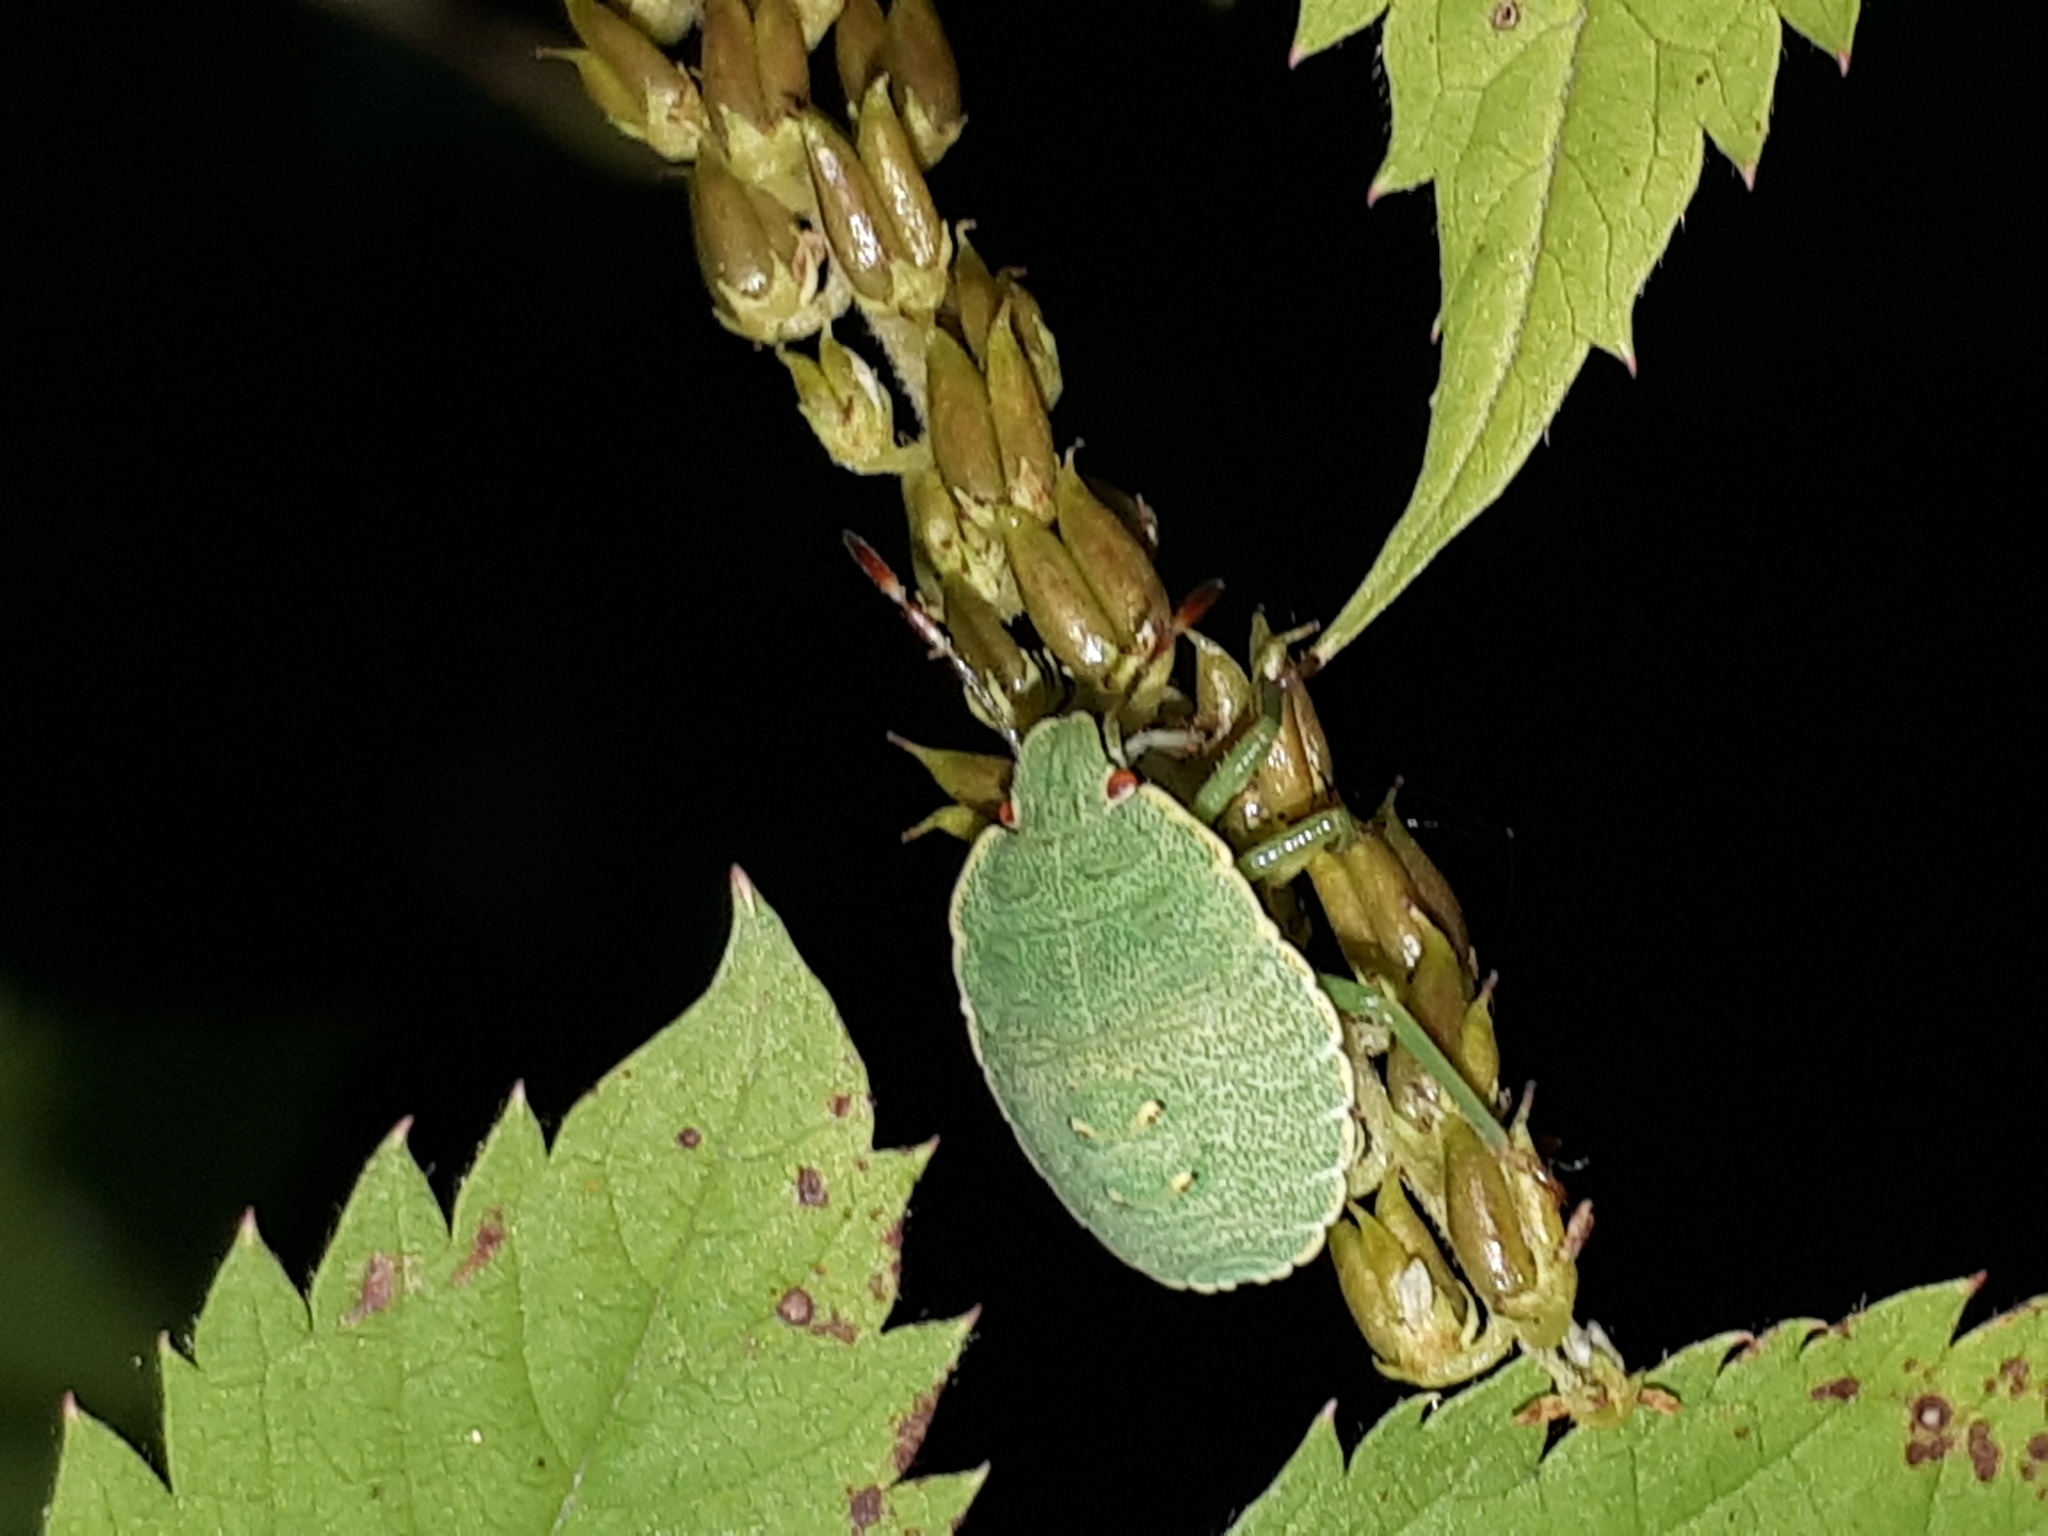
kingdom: Animalia
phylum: Arthropoda
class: Insecta
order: Hemiptera
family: Pentatomidae
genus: Palomena
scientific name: Palomena prasina
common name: Green shieldbug
